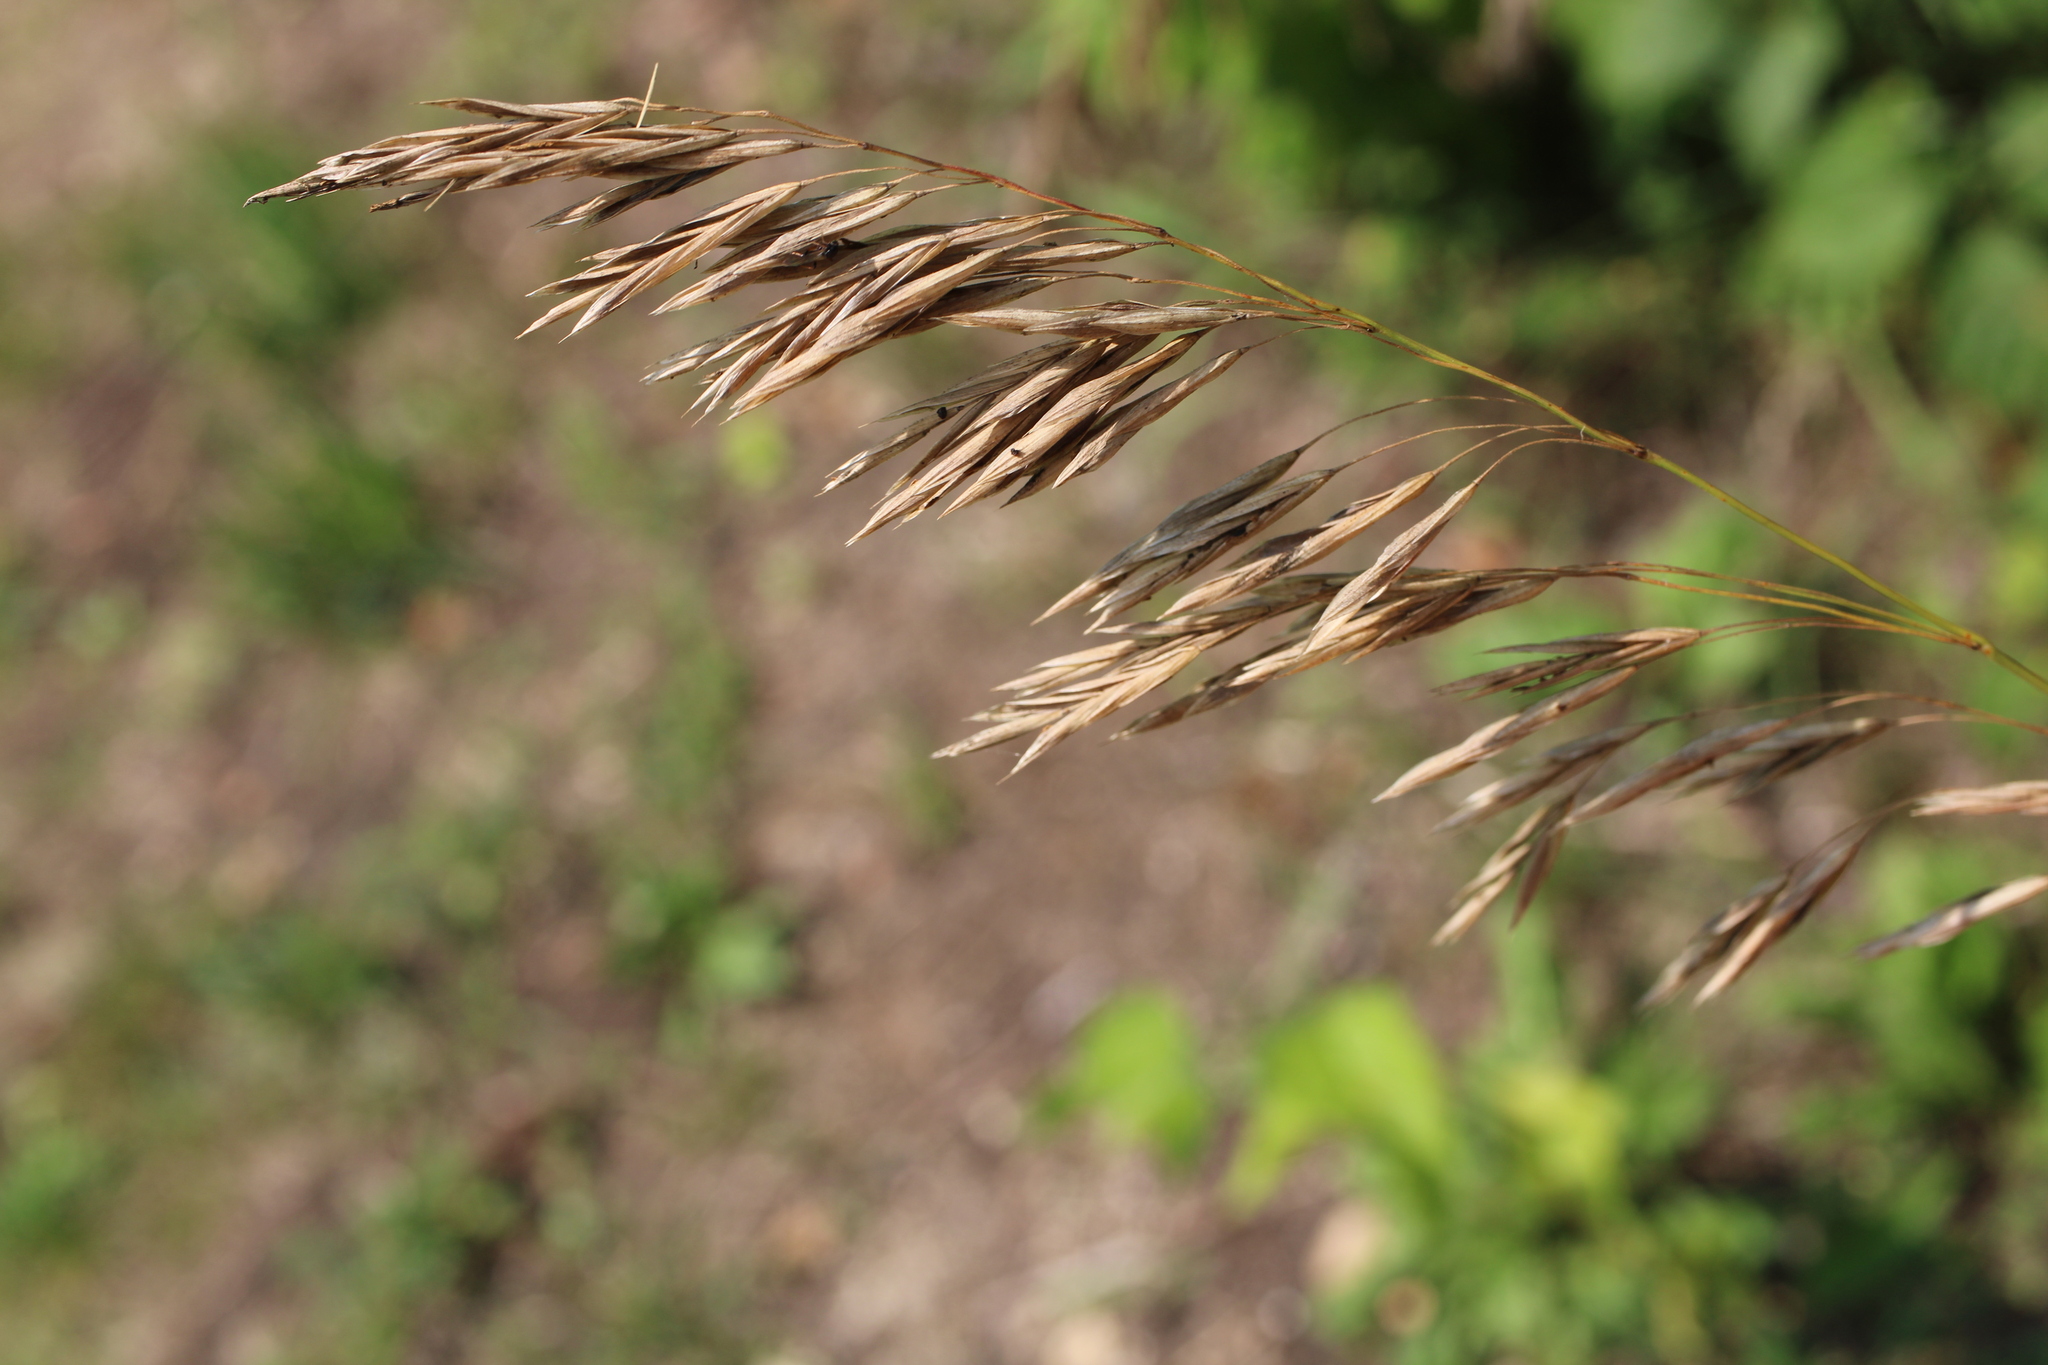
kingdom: Plantae
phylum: Tracheophyta
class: Liliopsida
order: Poales
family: Poaceae
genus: Bromus
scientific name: Bromus inermis
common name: Smooth brome
